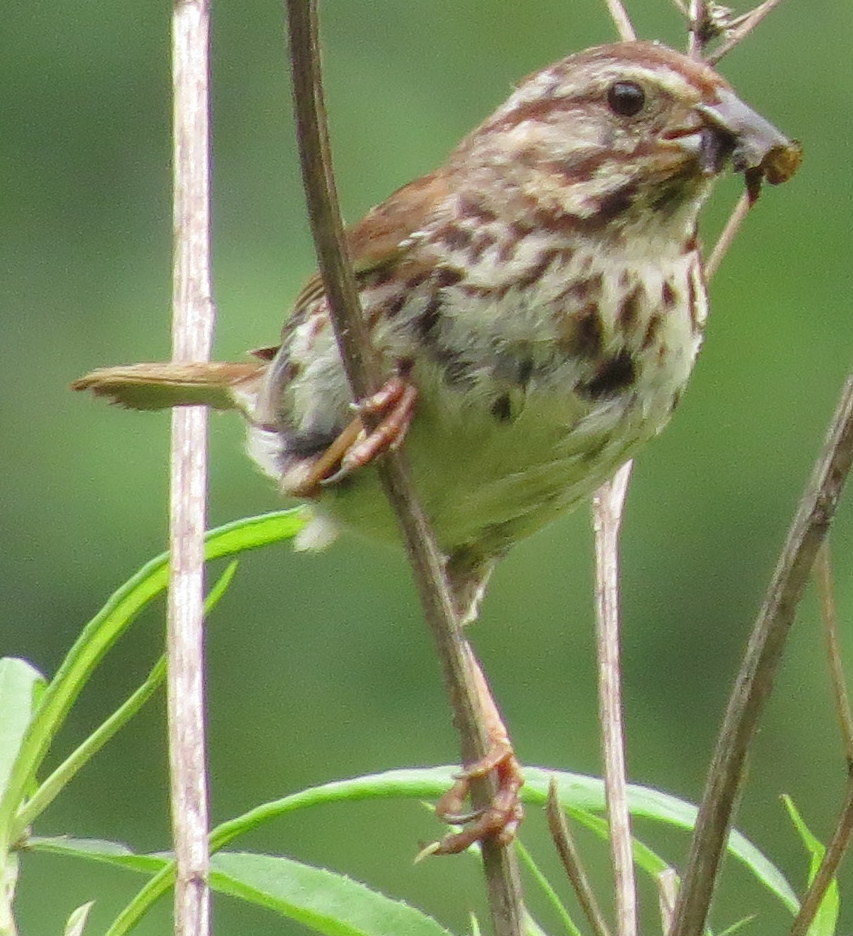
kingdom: Animalia
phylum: Chordata
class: Aves
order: Passeriformes
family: Passerellidae
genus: Melospiza
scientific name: Melospiza melodia
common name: Song sparrow
